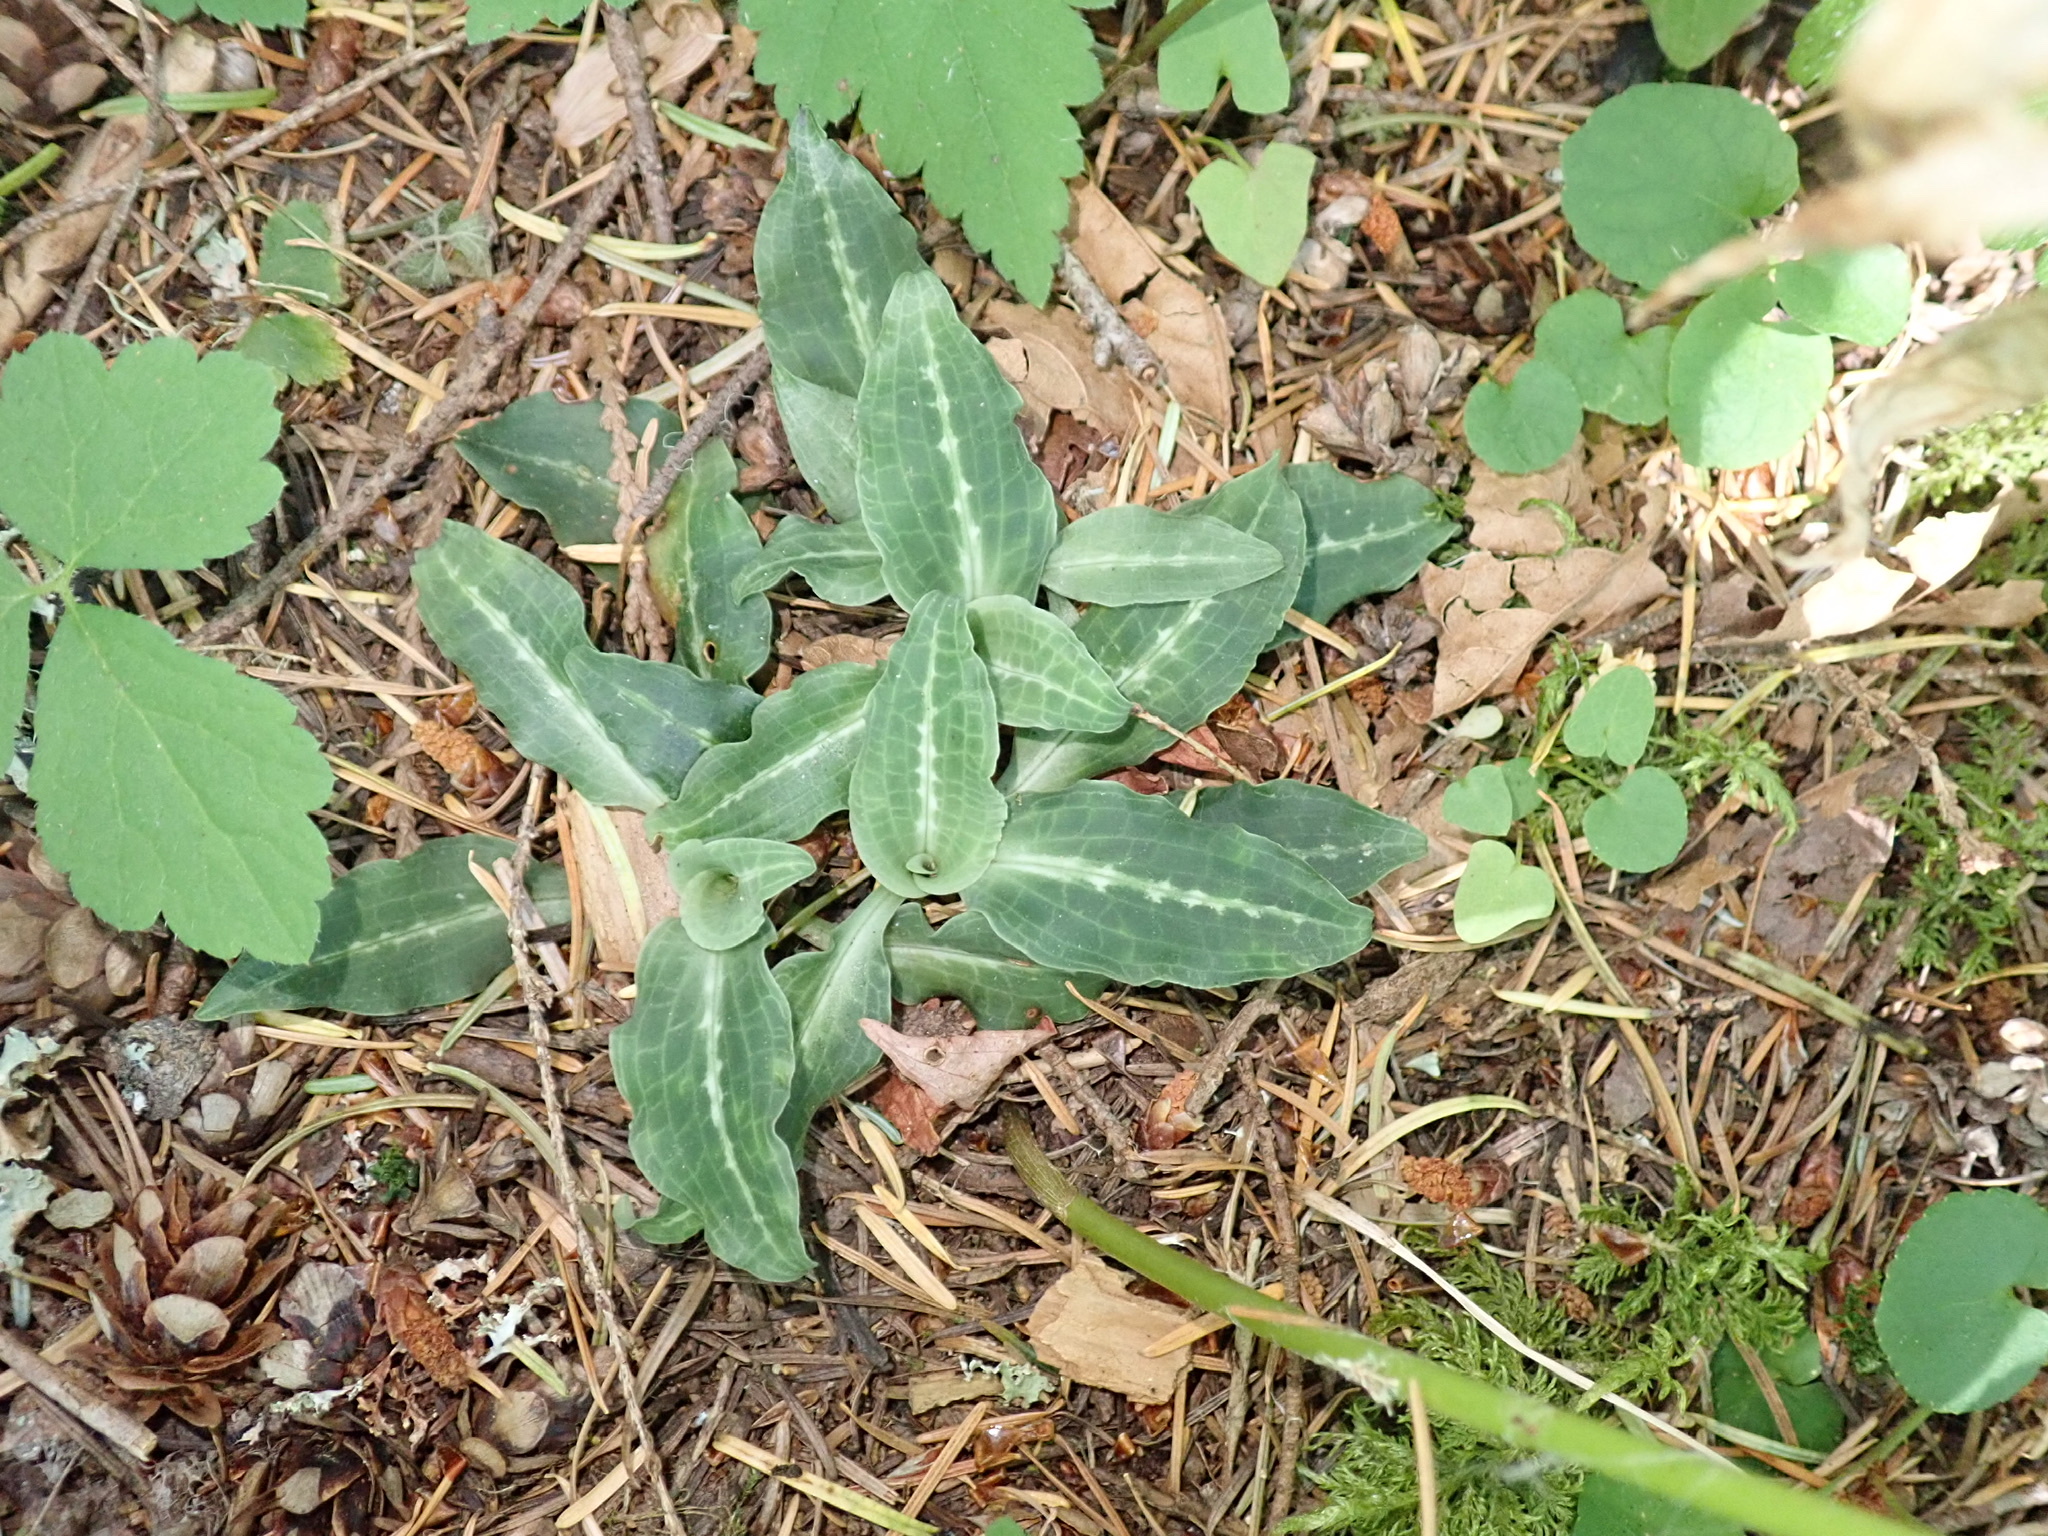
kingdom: Plantae
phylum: Tracheophyta
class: Liliopsida
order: Asparagales
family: Orchidaceae
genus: Goodyera
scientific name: Goodyera oblongifolia
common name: Giant rattlesnake-plantain
